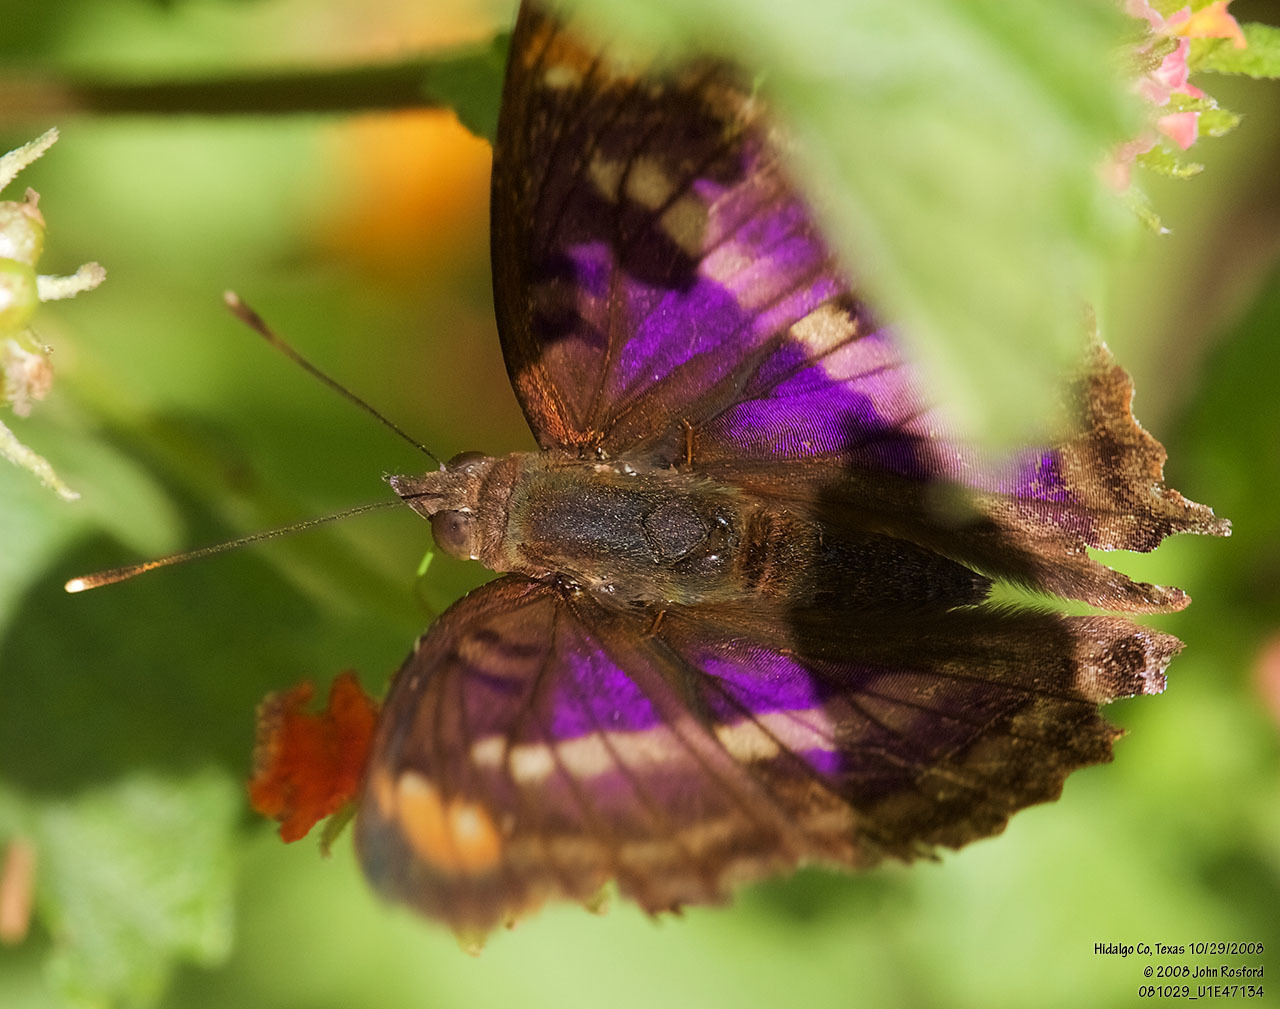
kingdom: Animalia
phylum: Arthropoda
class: Insecta
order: Lepidoptera
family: Nymphalidae
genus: Doxocopa
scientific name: Doxocopa pavon
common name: Pavon emperor
